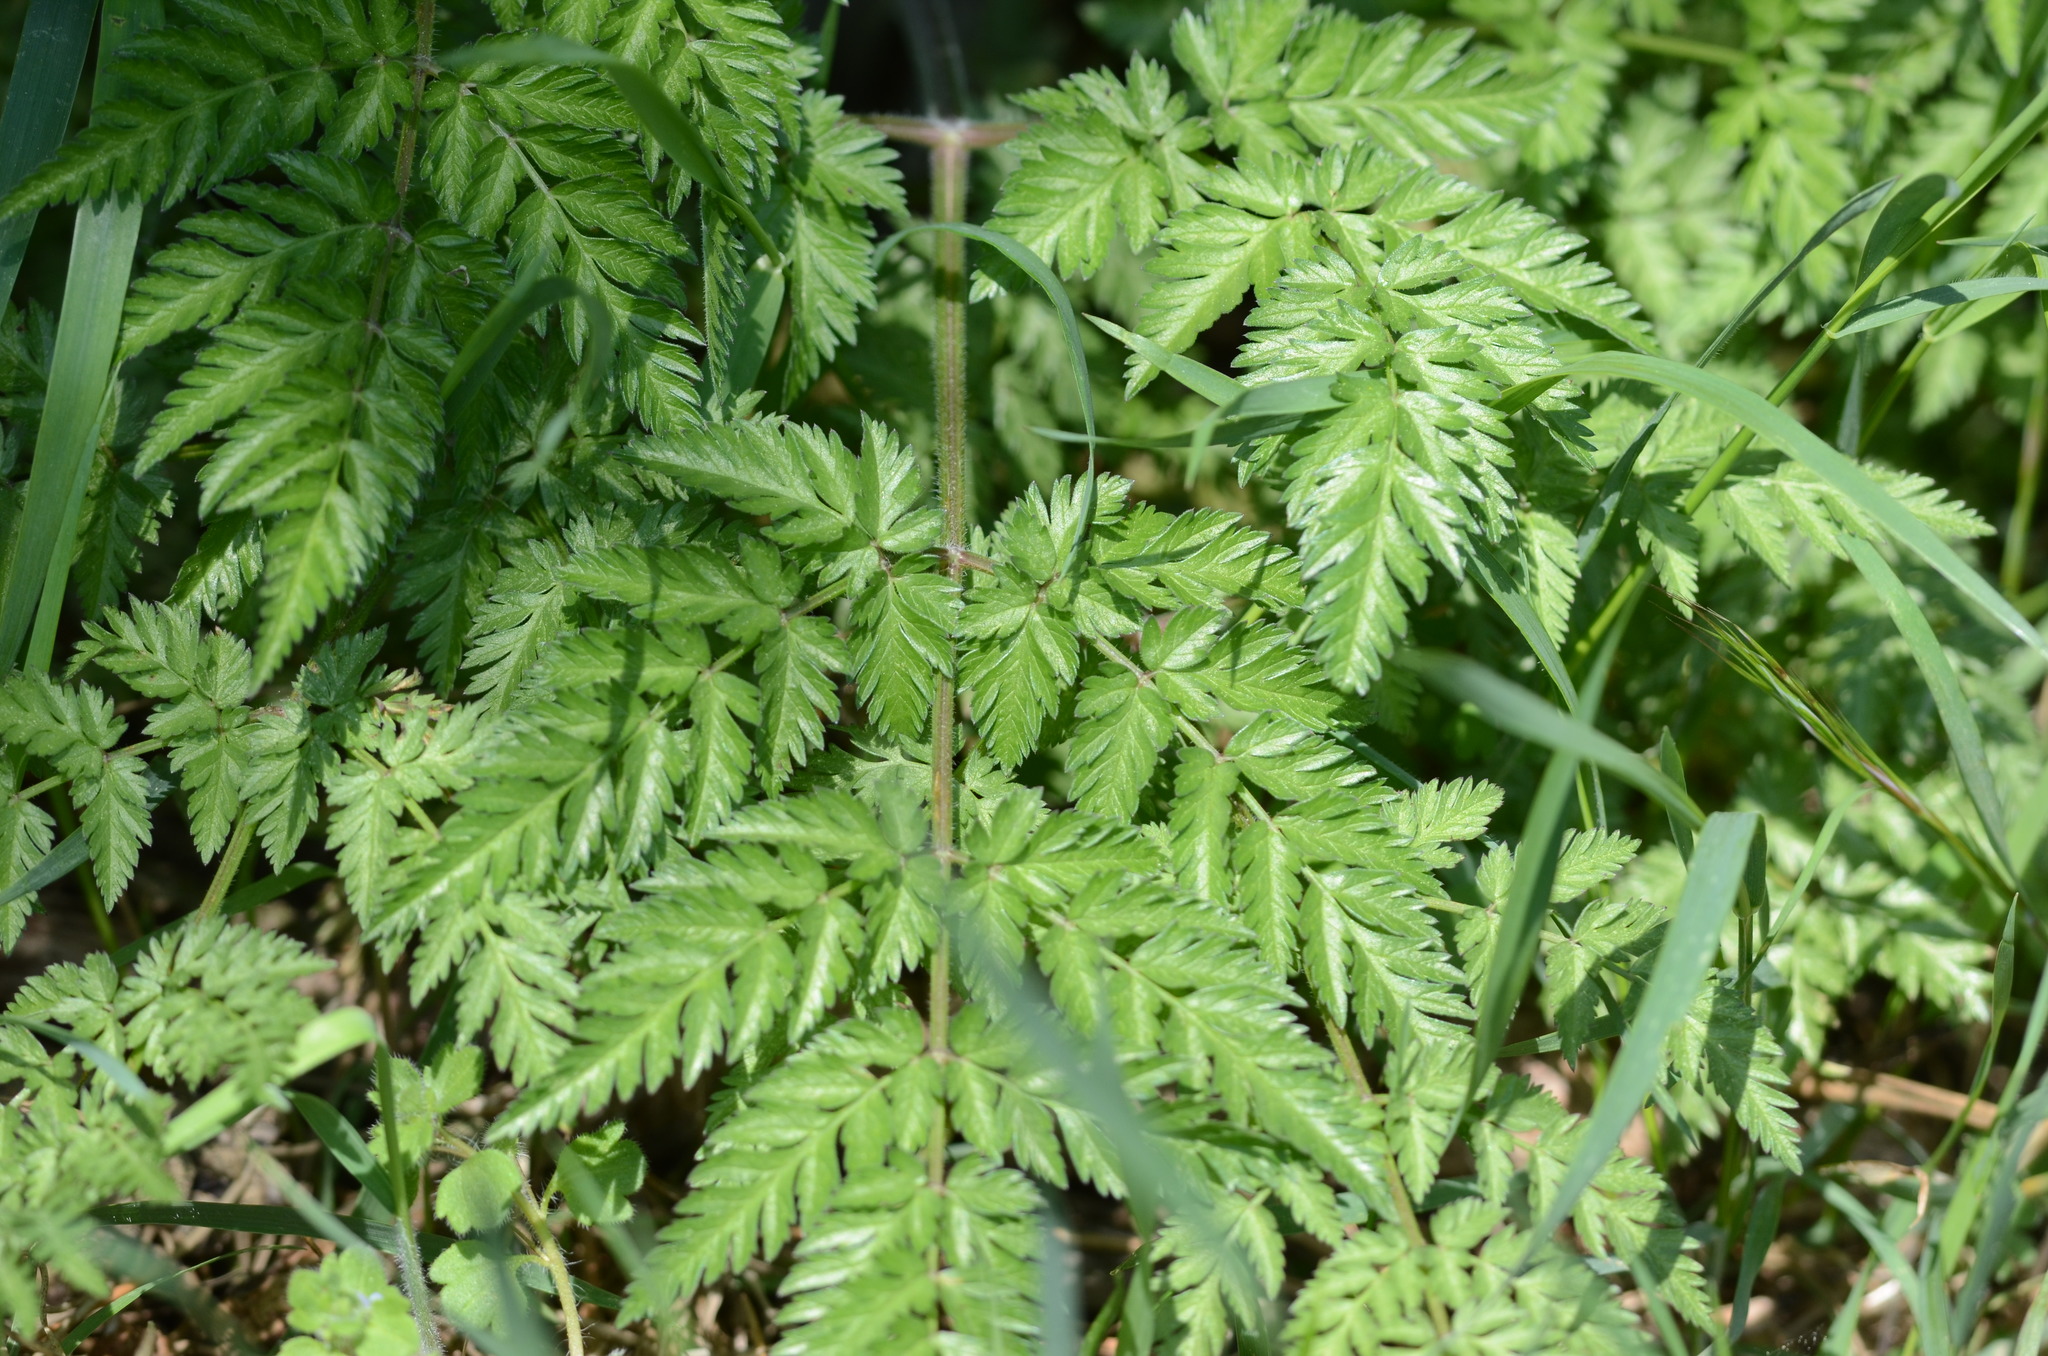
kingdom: Plantae
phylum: Tracheophyta
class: Magnoliopsida
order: Apiales
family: Apiaceae
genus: Anthriscus
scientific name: Anthriscus sylvestris
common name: Cow parsley
